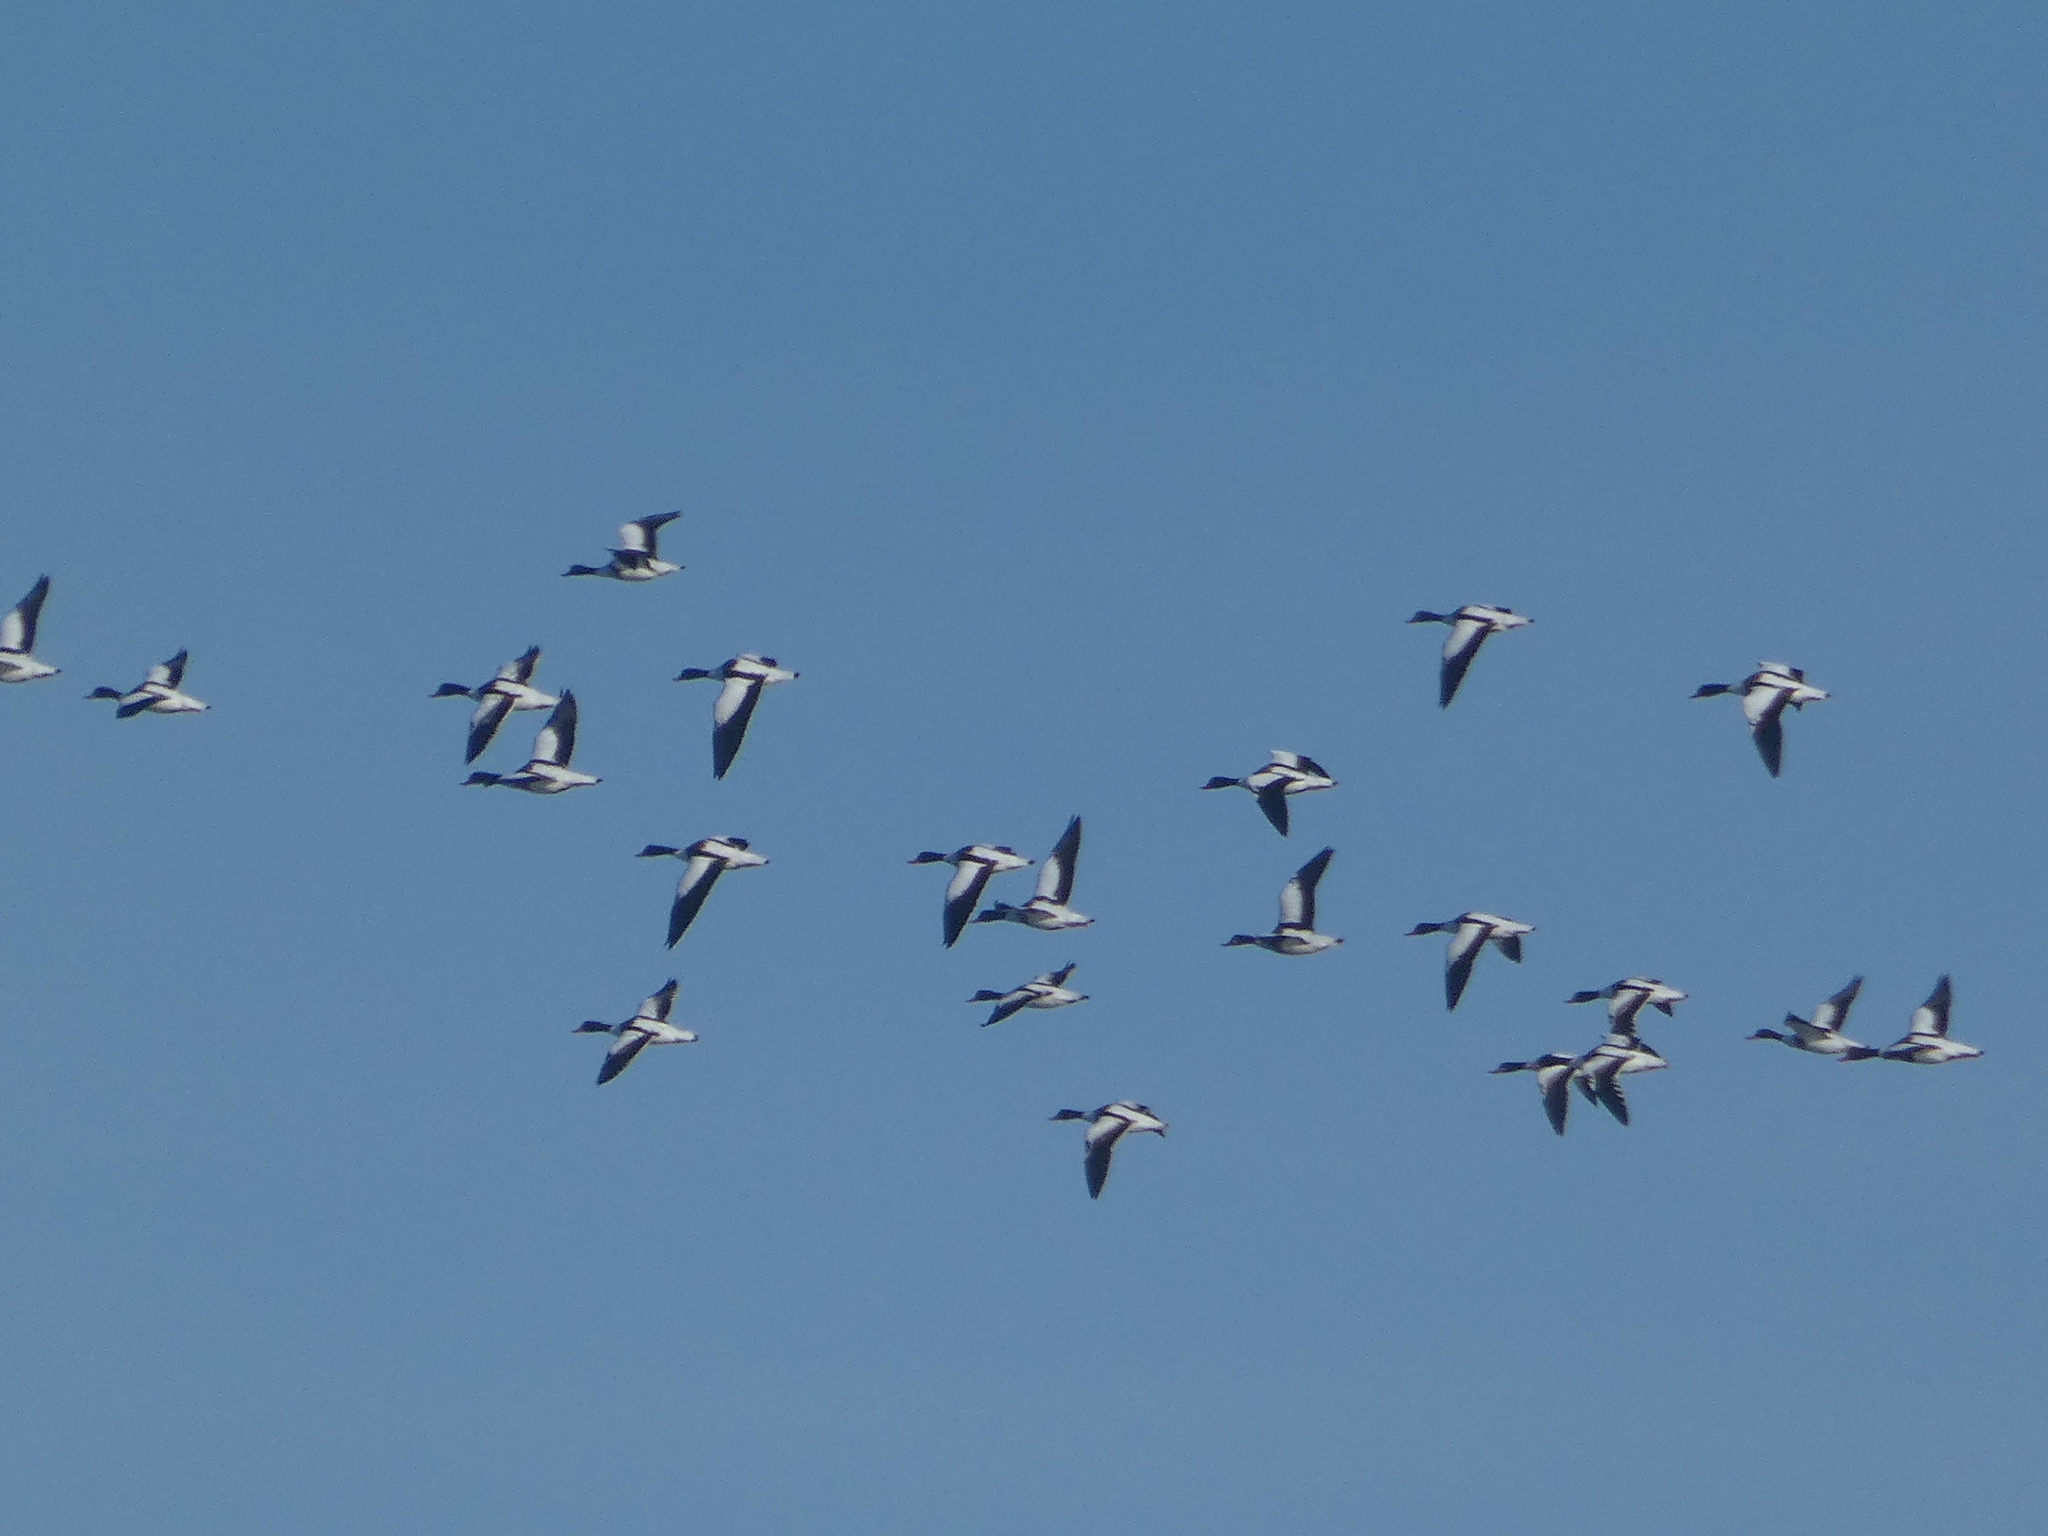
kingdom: Animalia
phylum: Chordata
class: Aves
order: Anseriformes
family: Anatidae
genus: Tadorna
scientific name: Tadorna tadorna
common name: Common shelduck
